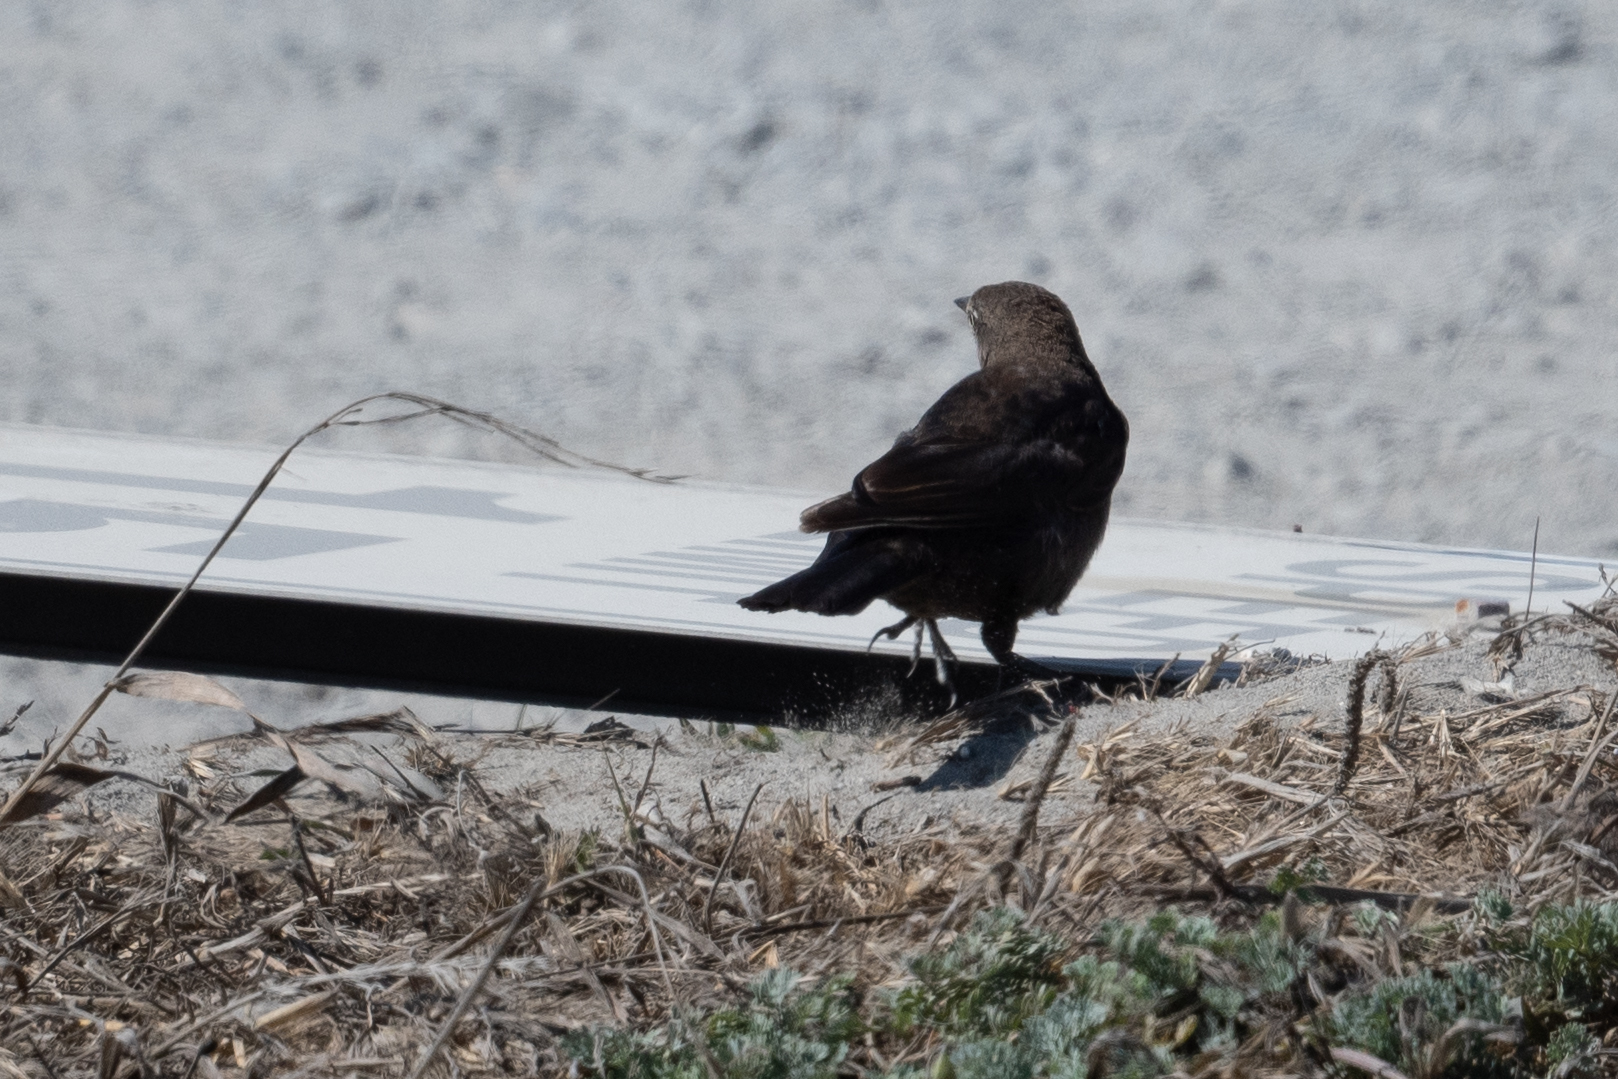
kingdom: Animalia
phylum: Chordata
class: Aves
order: Passeriformes
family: Icteridae
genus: Euphagus
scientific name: Euphagus cyanocephalus
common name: Brewer's blackbird
